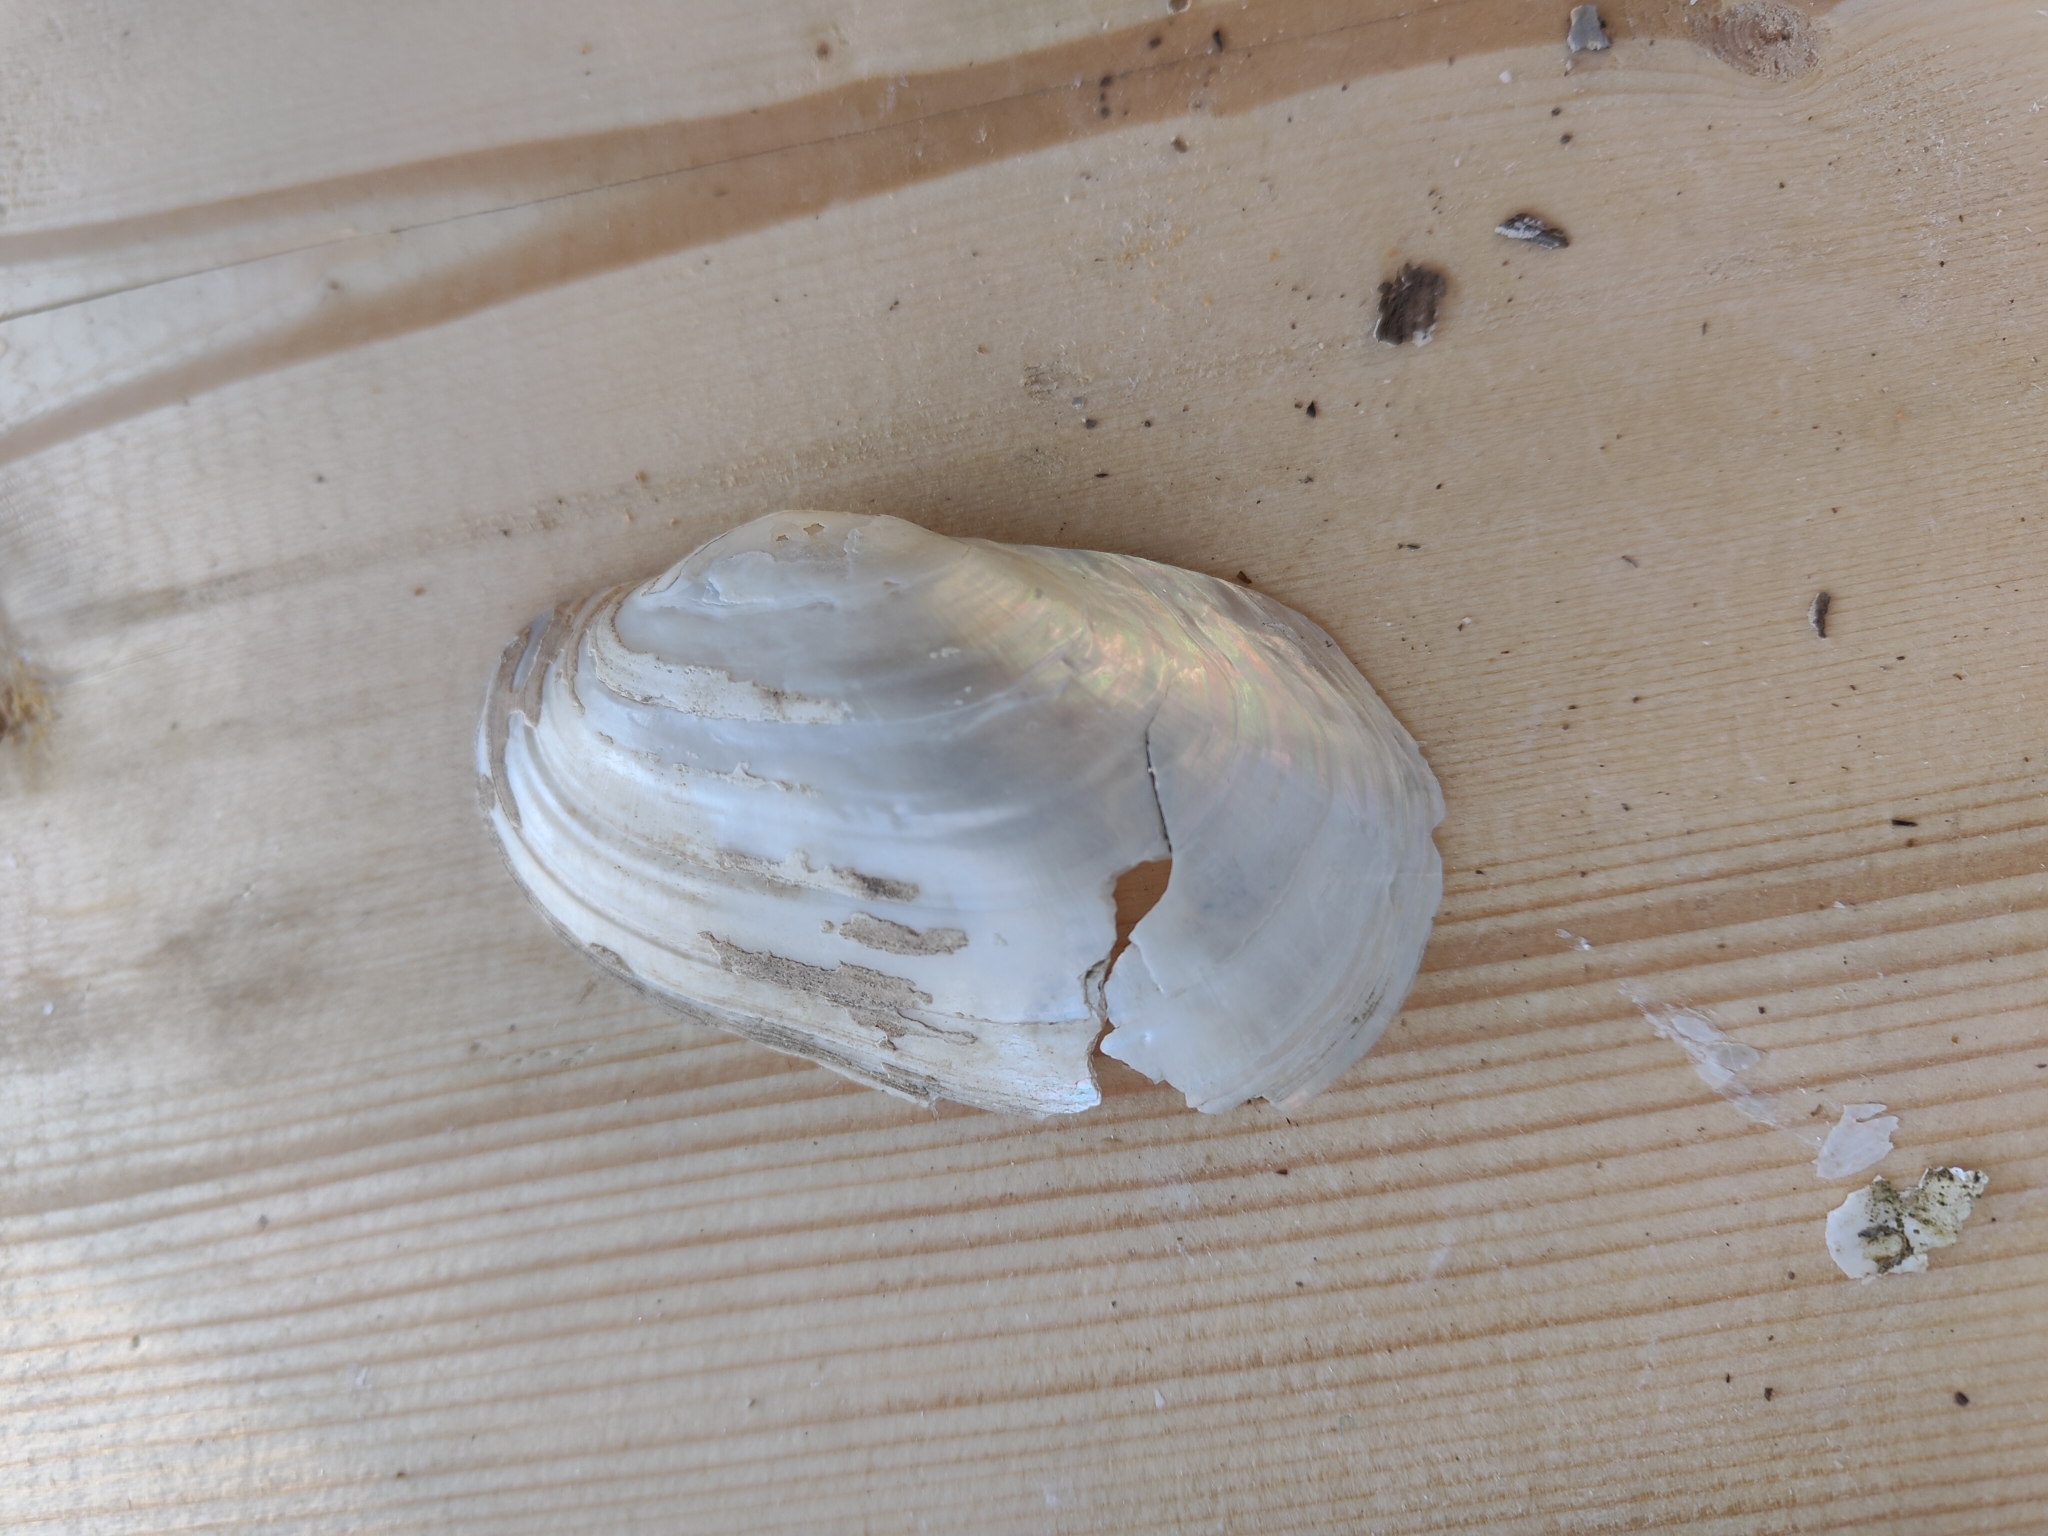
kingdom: Animalia
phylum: Mollusca
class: Bivalvia
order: Unionida
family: Unionidae
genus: Lampsilis
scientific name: Lampsilis siliquoidea
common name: Fatmucket
